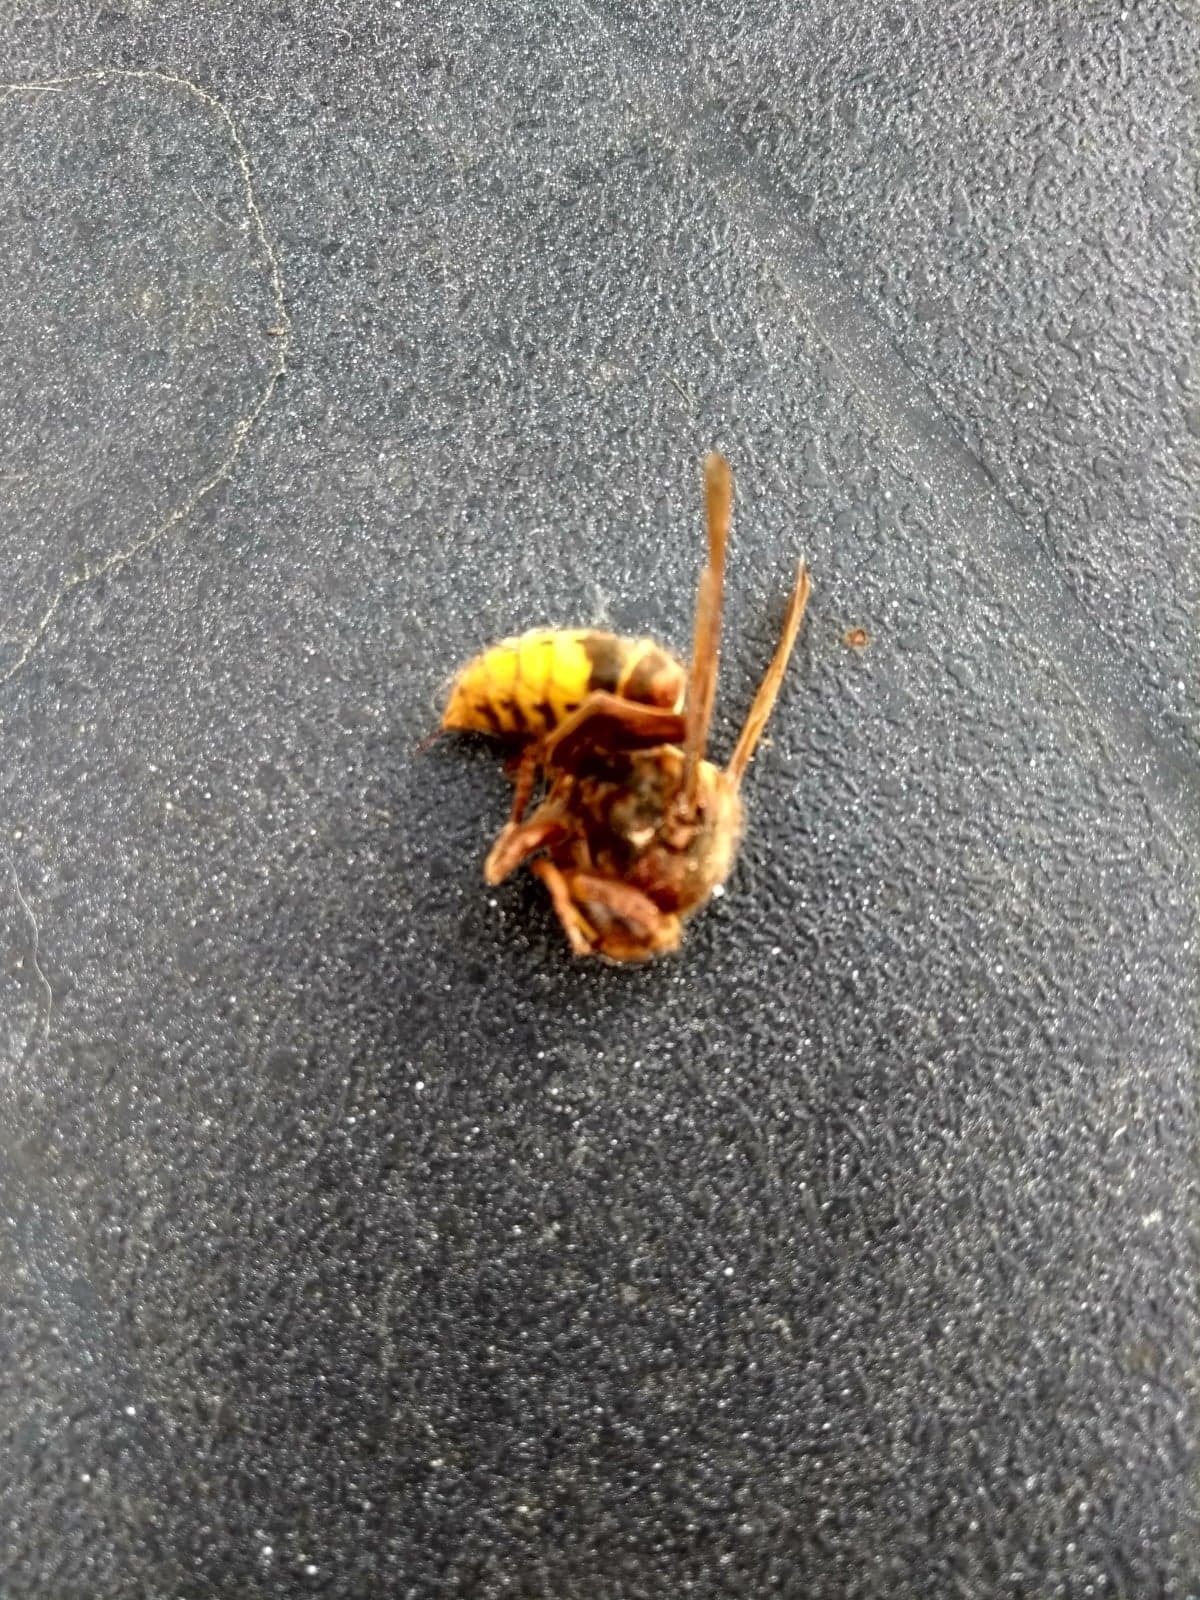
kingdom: Animalia
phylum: Arthropoda
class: Insecta
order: Hymenoptera
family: Vespidae
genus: Vespa
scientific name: Vespa crabro
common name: Hornet
